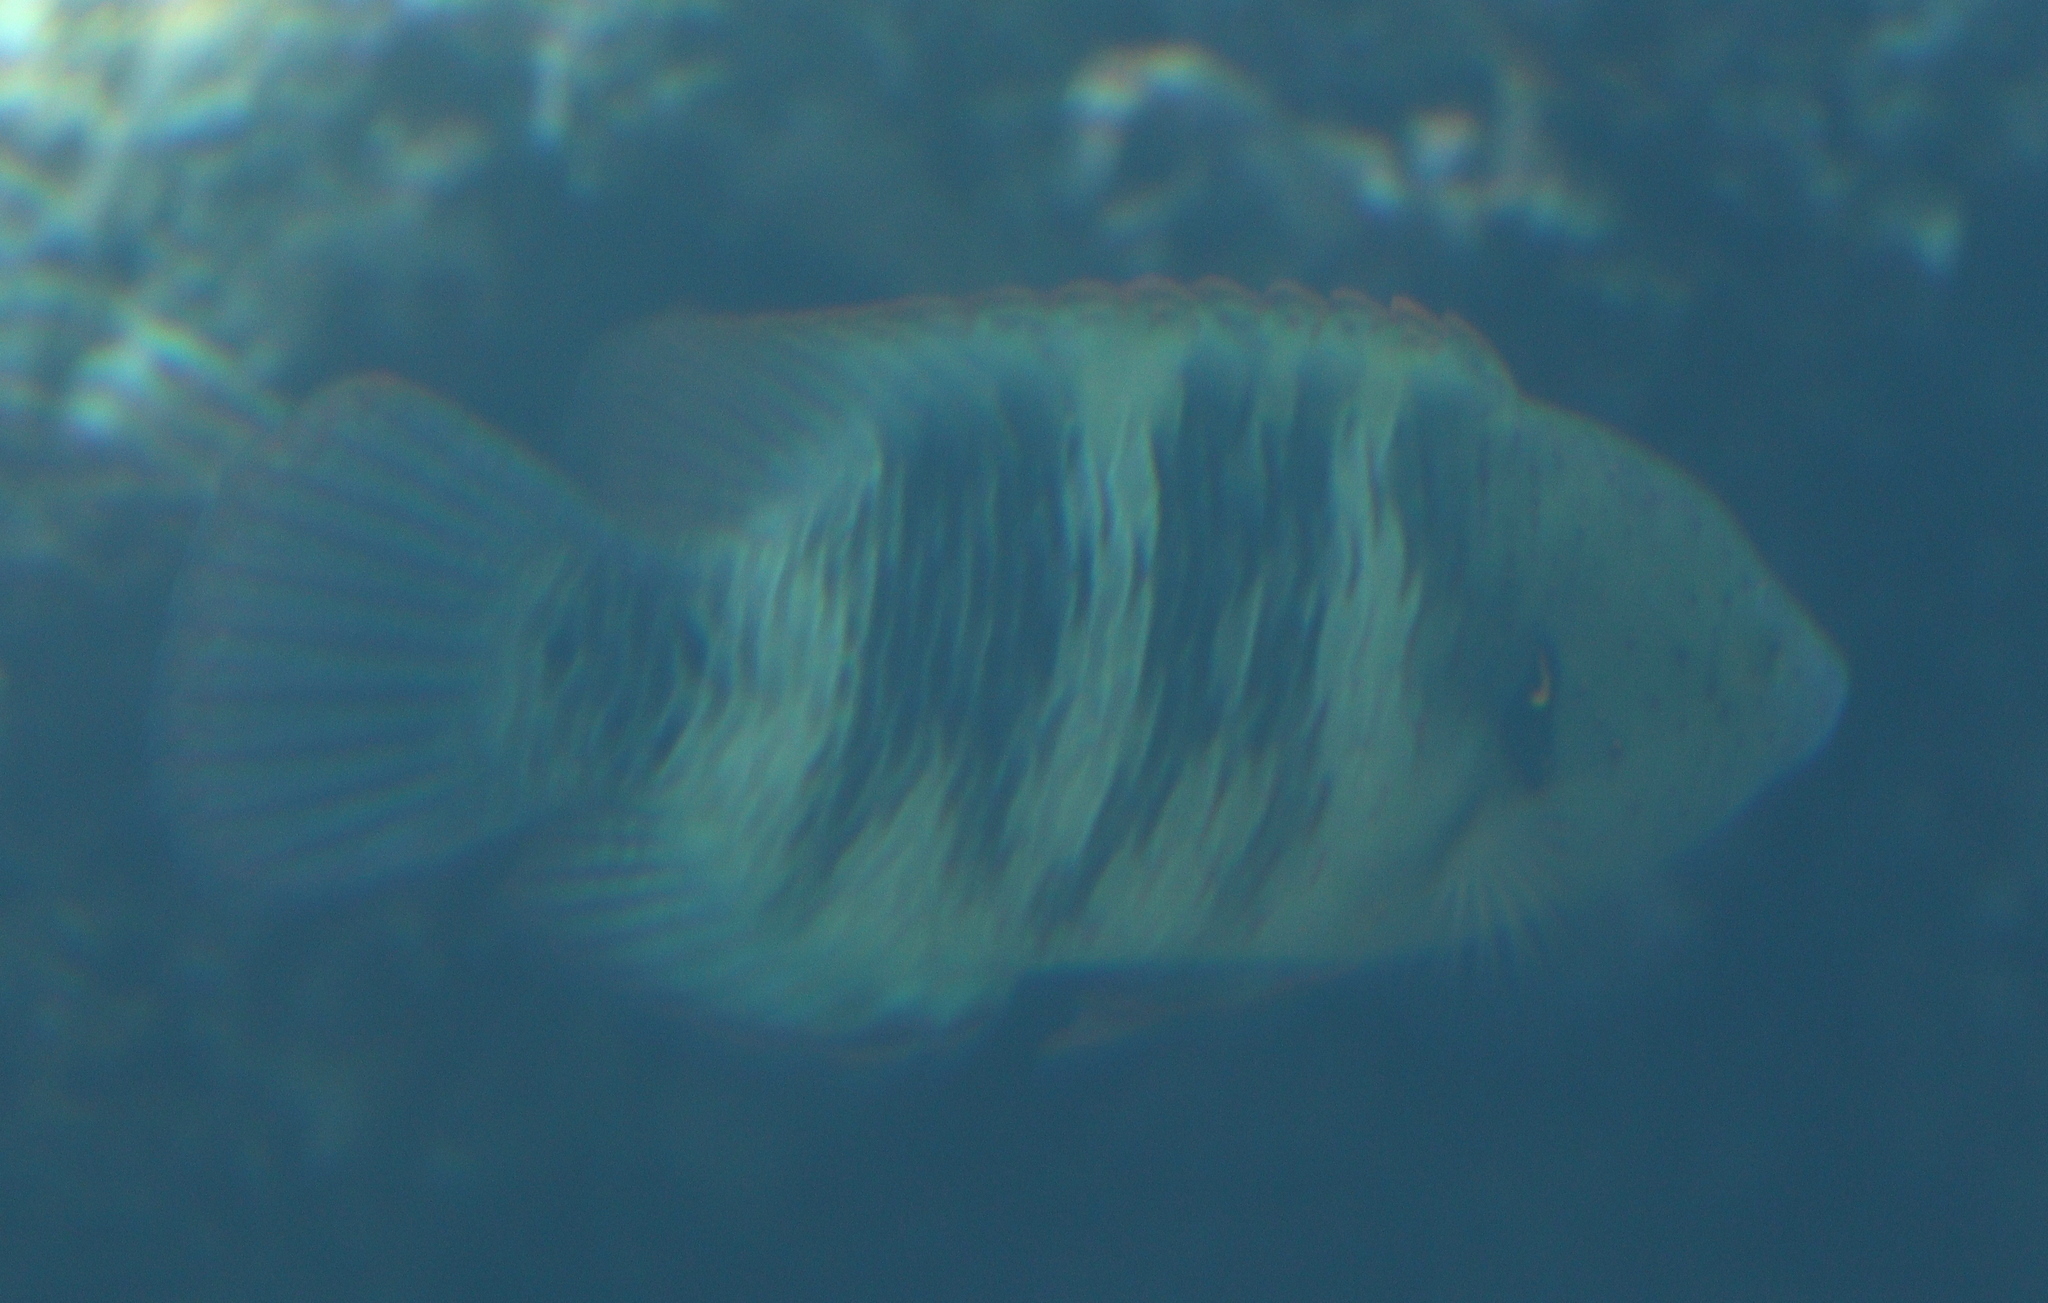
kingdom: Animalia
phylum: Chordata
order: Perciformes
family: Labridae
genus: Cheilinus
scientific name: Cheilinus lunulatus
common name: Broomtail wrasse
